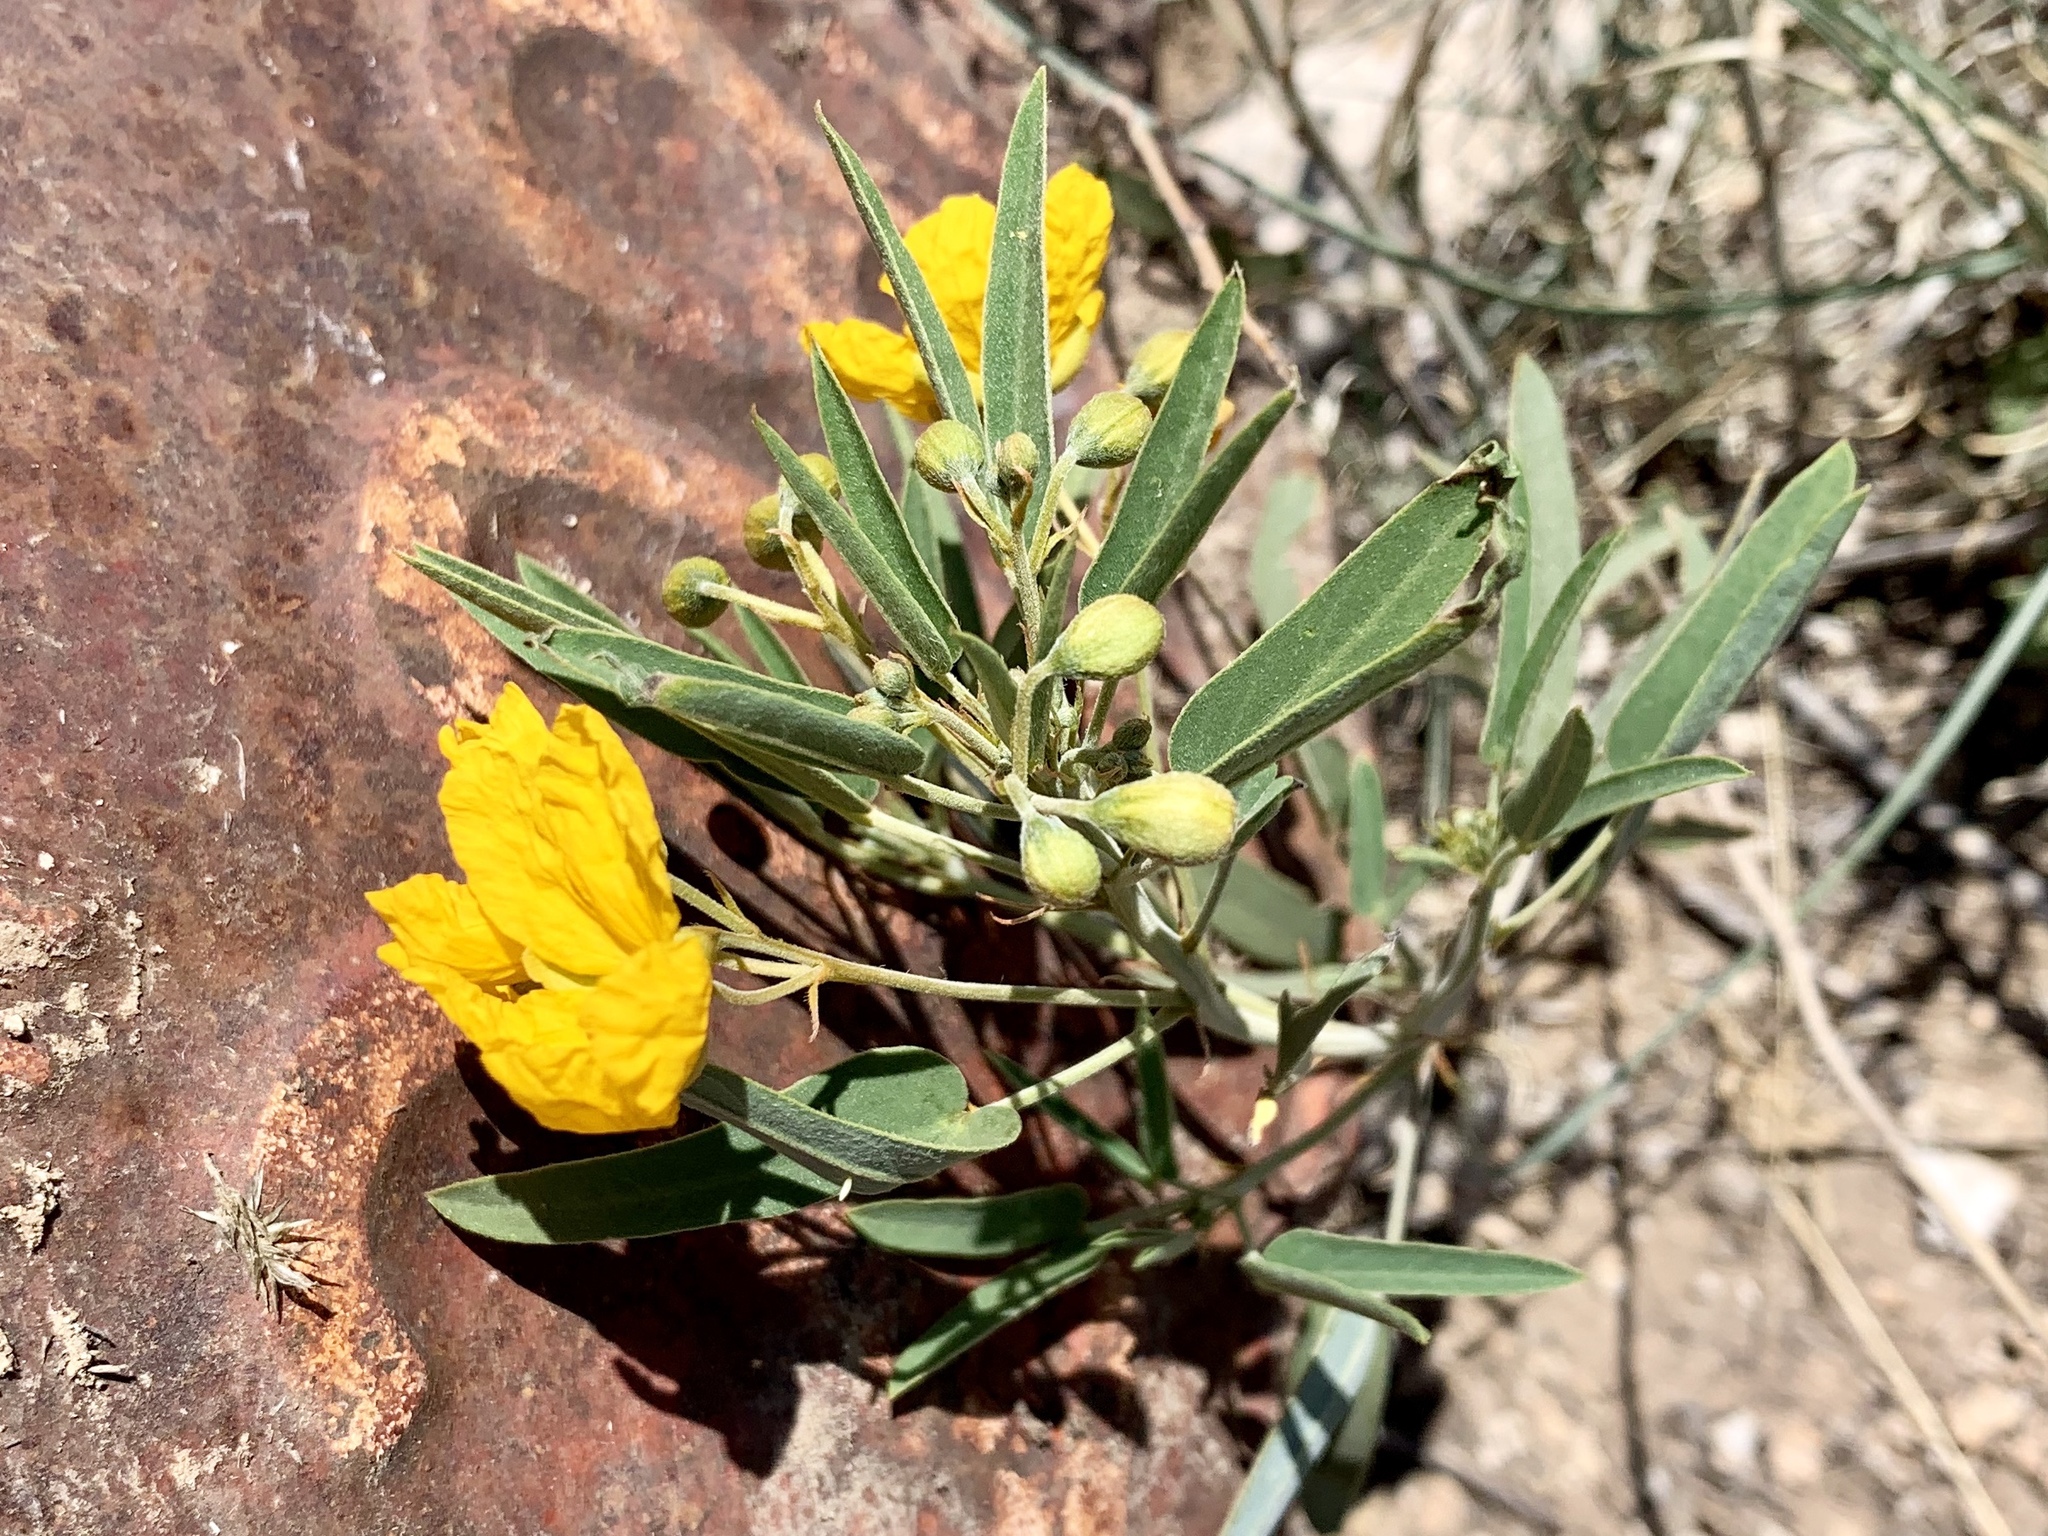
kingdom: Plantae
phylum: Tracheophyta
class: Magnoliopsida
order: Fabales
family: Fabaceae
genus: Senna
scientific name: Senna roemeriana
